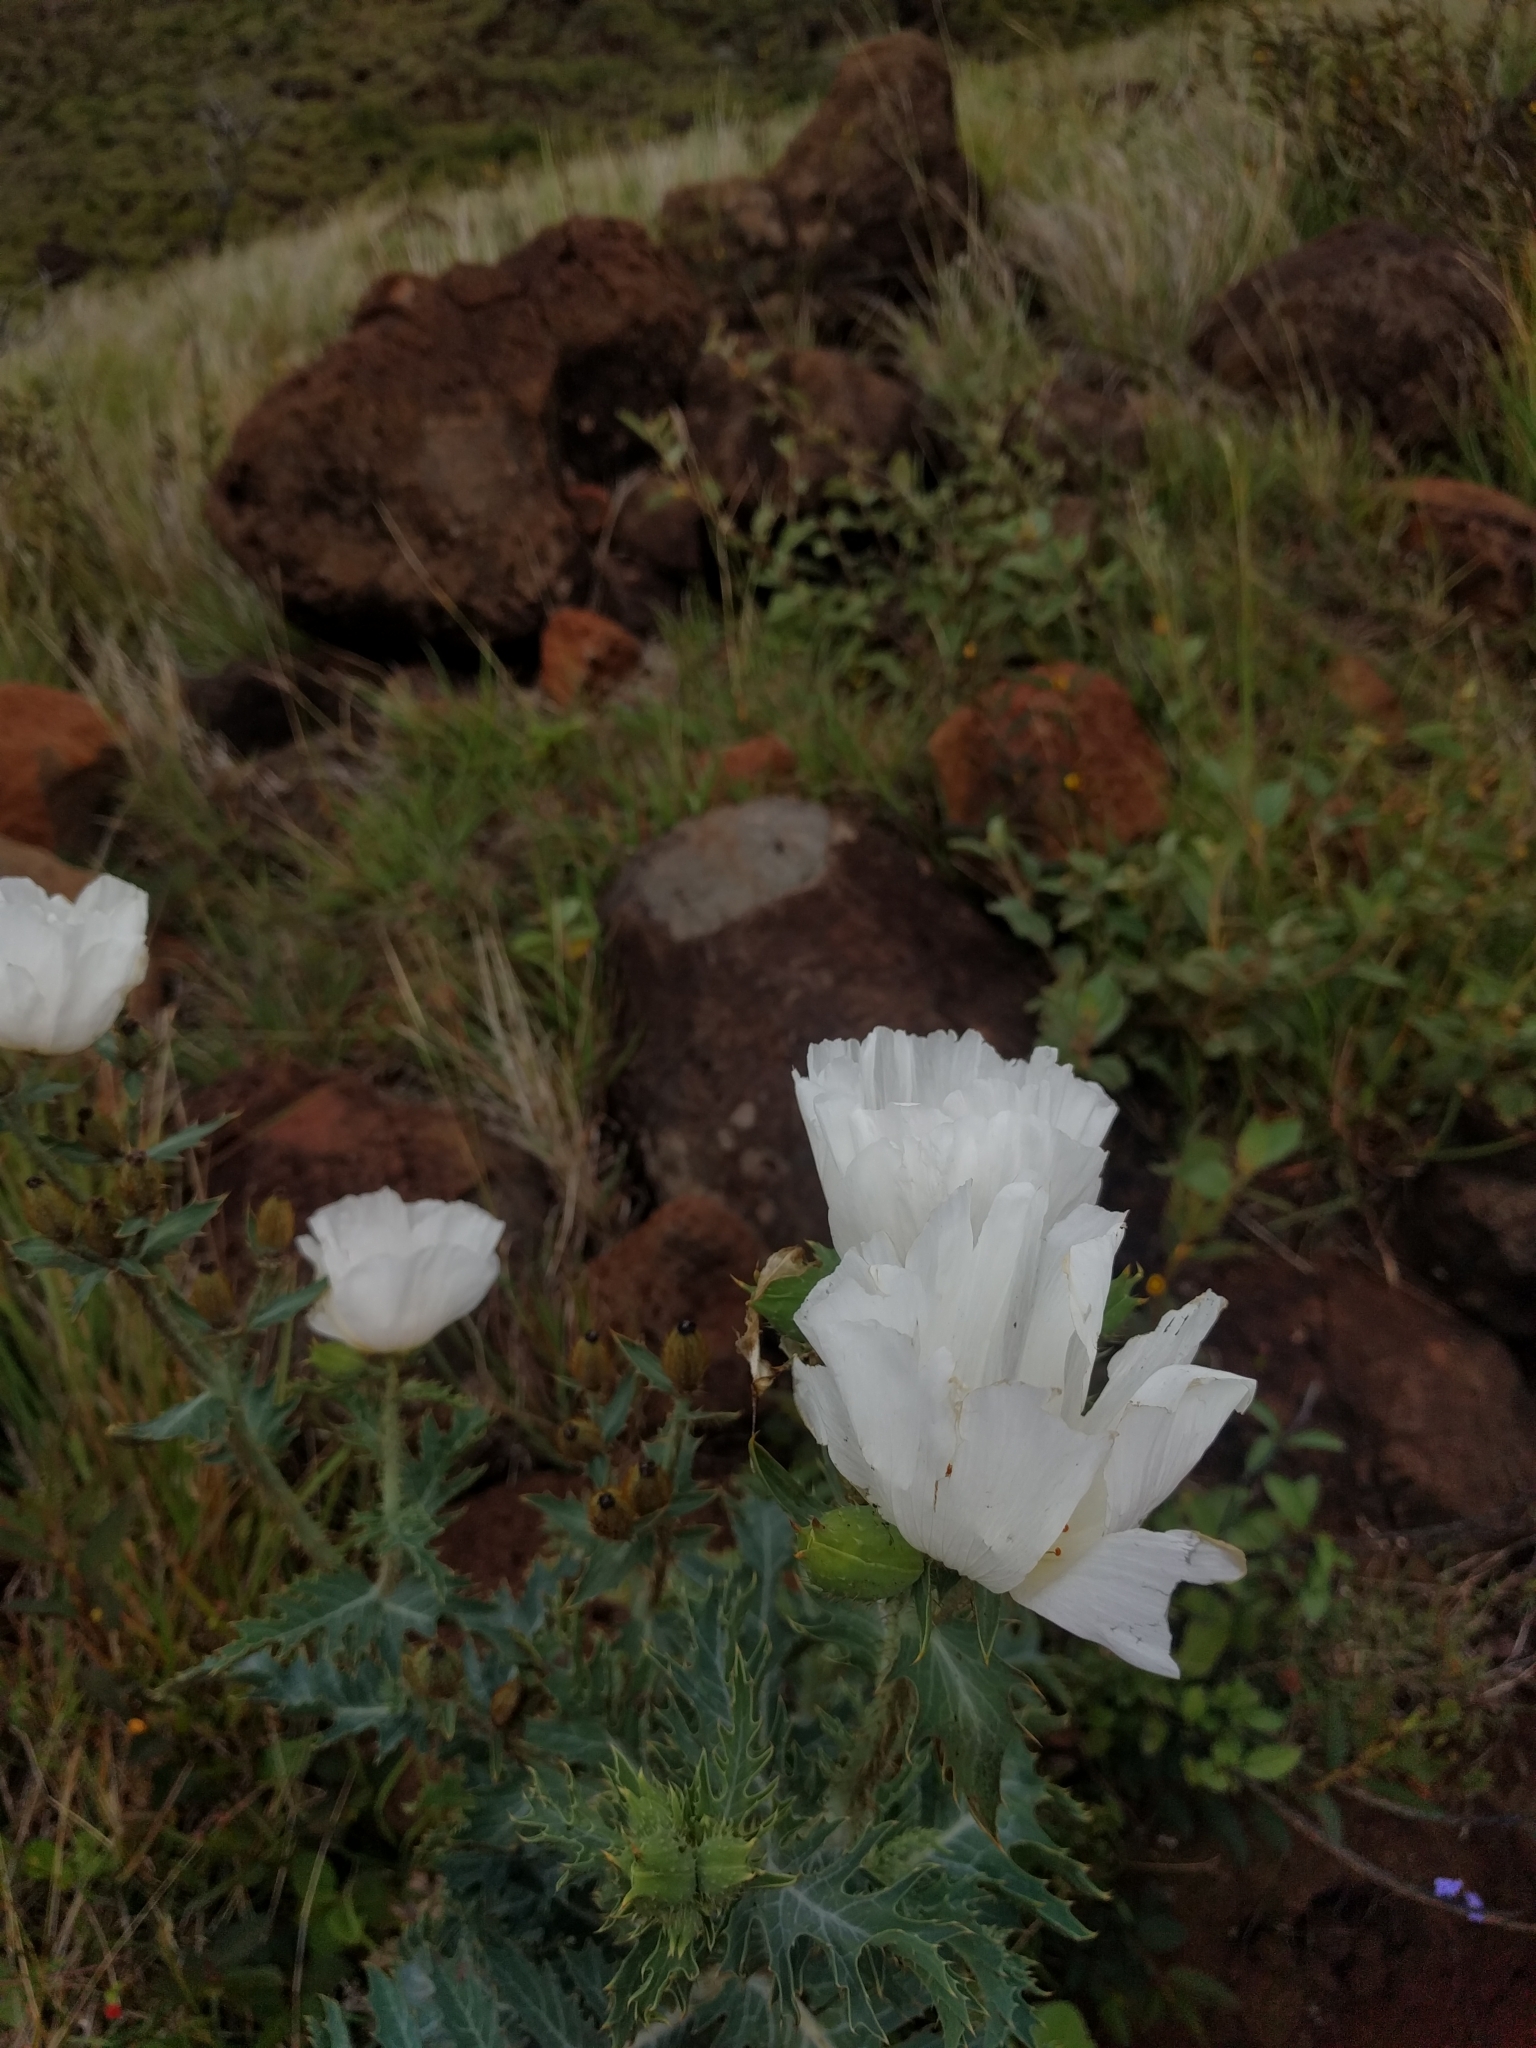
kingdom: Plantae
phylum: Tracheophyta
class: Magnoliopsida
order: Ranunculales
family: Papaveraceae
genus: Argemone
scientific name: Argemone glauca
